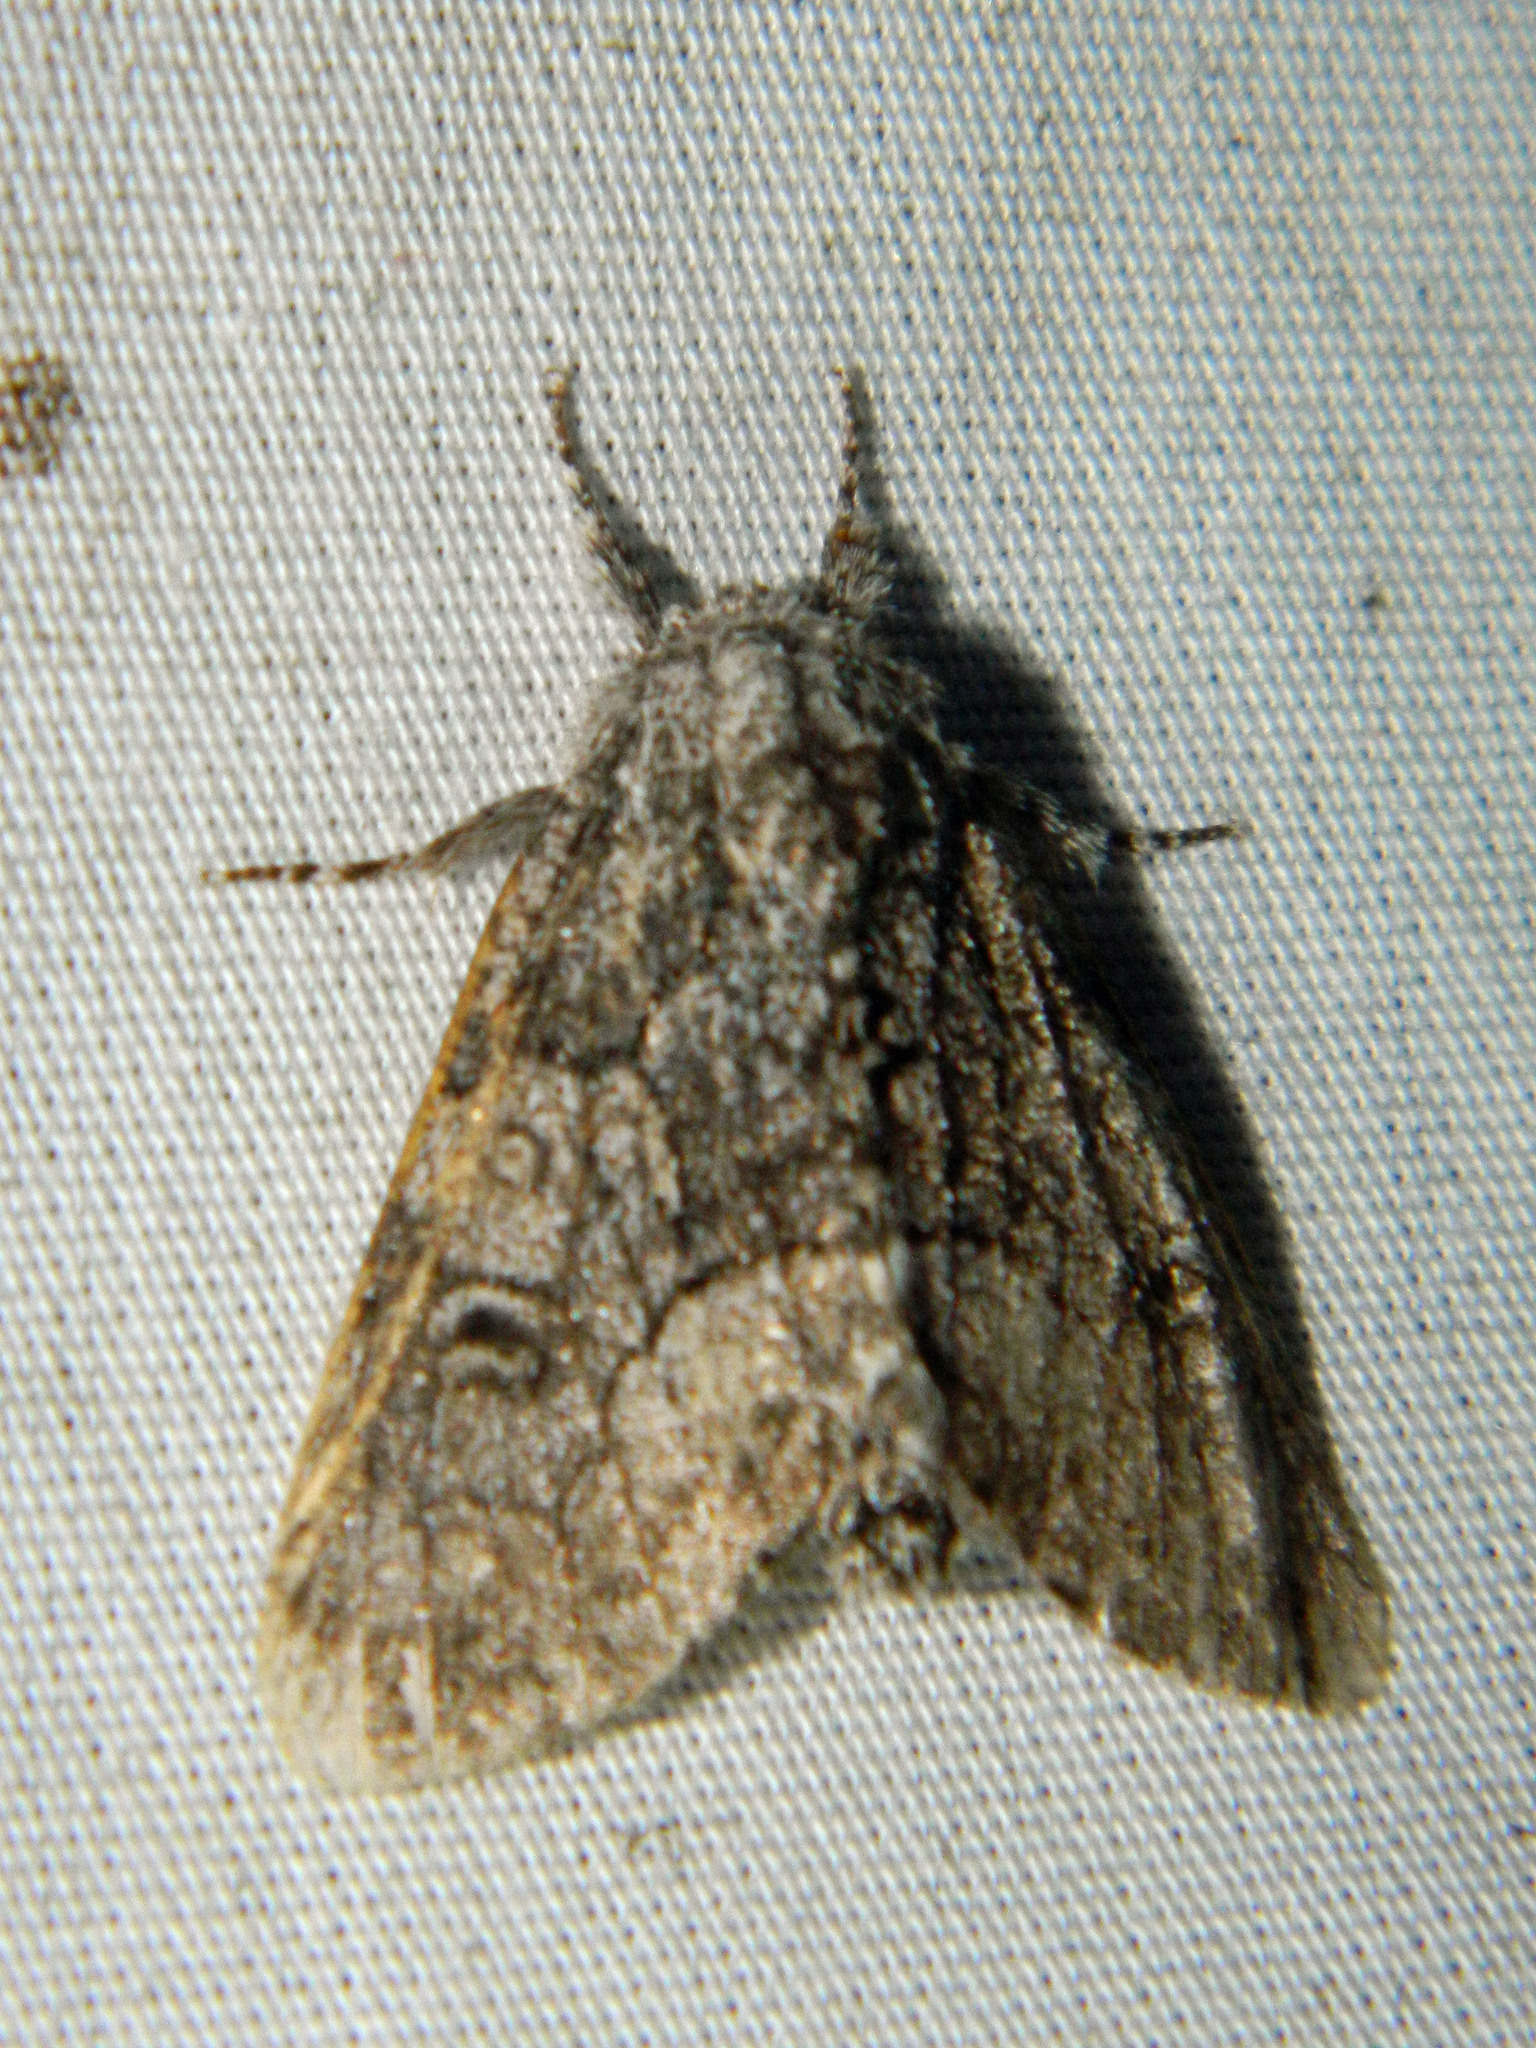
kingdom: Animalia
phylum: Arthropoda
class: Insecta
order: Lepidoptera
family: Noctuidae
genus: Raphia
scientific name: Raphia frater
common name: Brother
